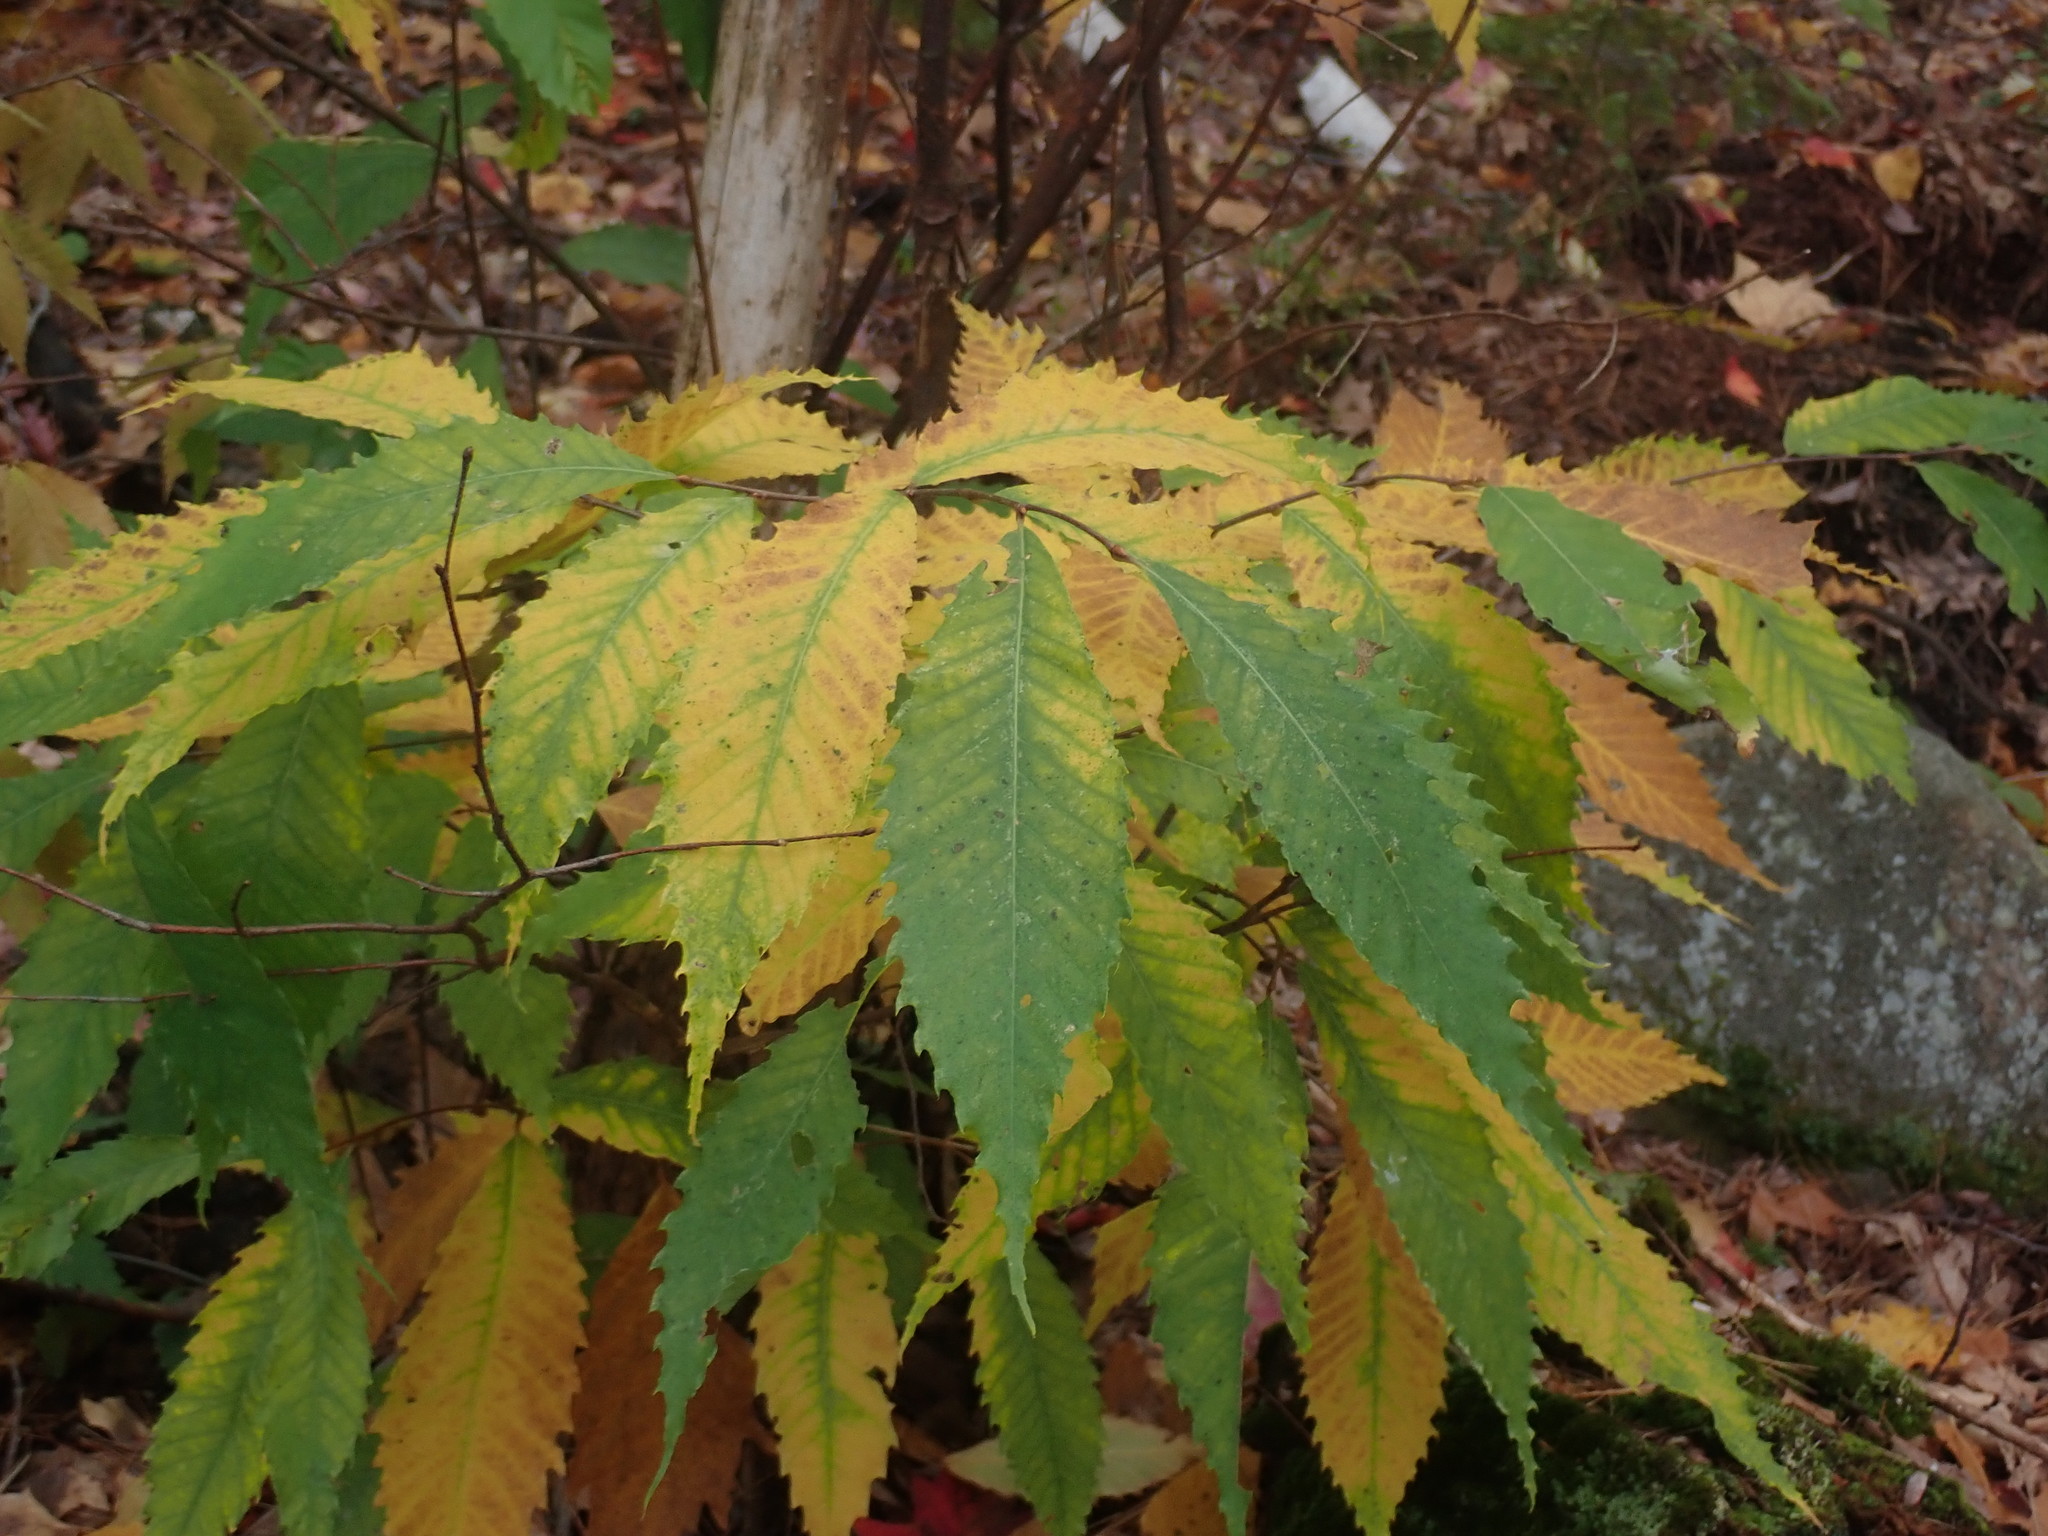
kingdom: Plantae
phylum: Tracheophyta
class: Magnoliopsida
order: Fagales
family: Fagaceae
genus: Castanea
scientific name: Castanea dentata
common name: American chestnut
